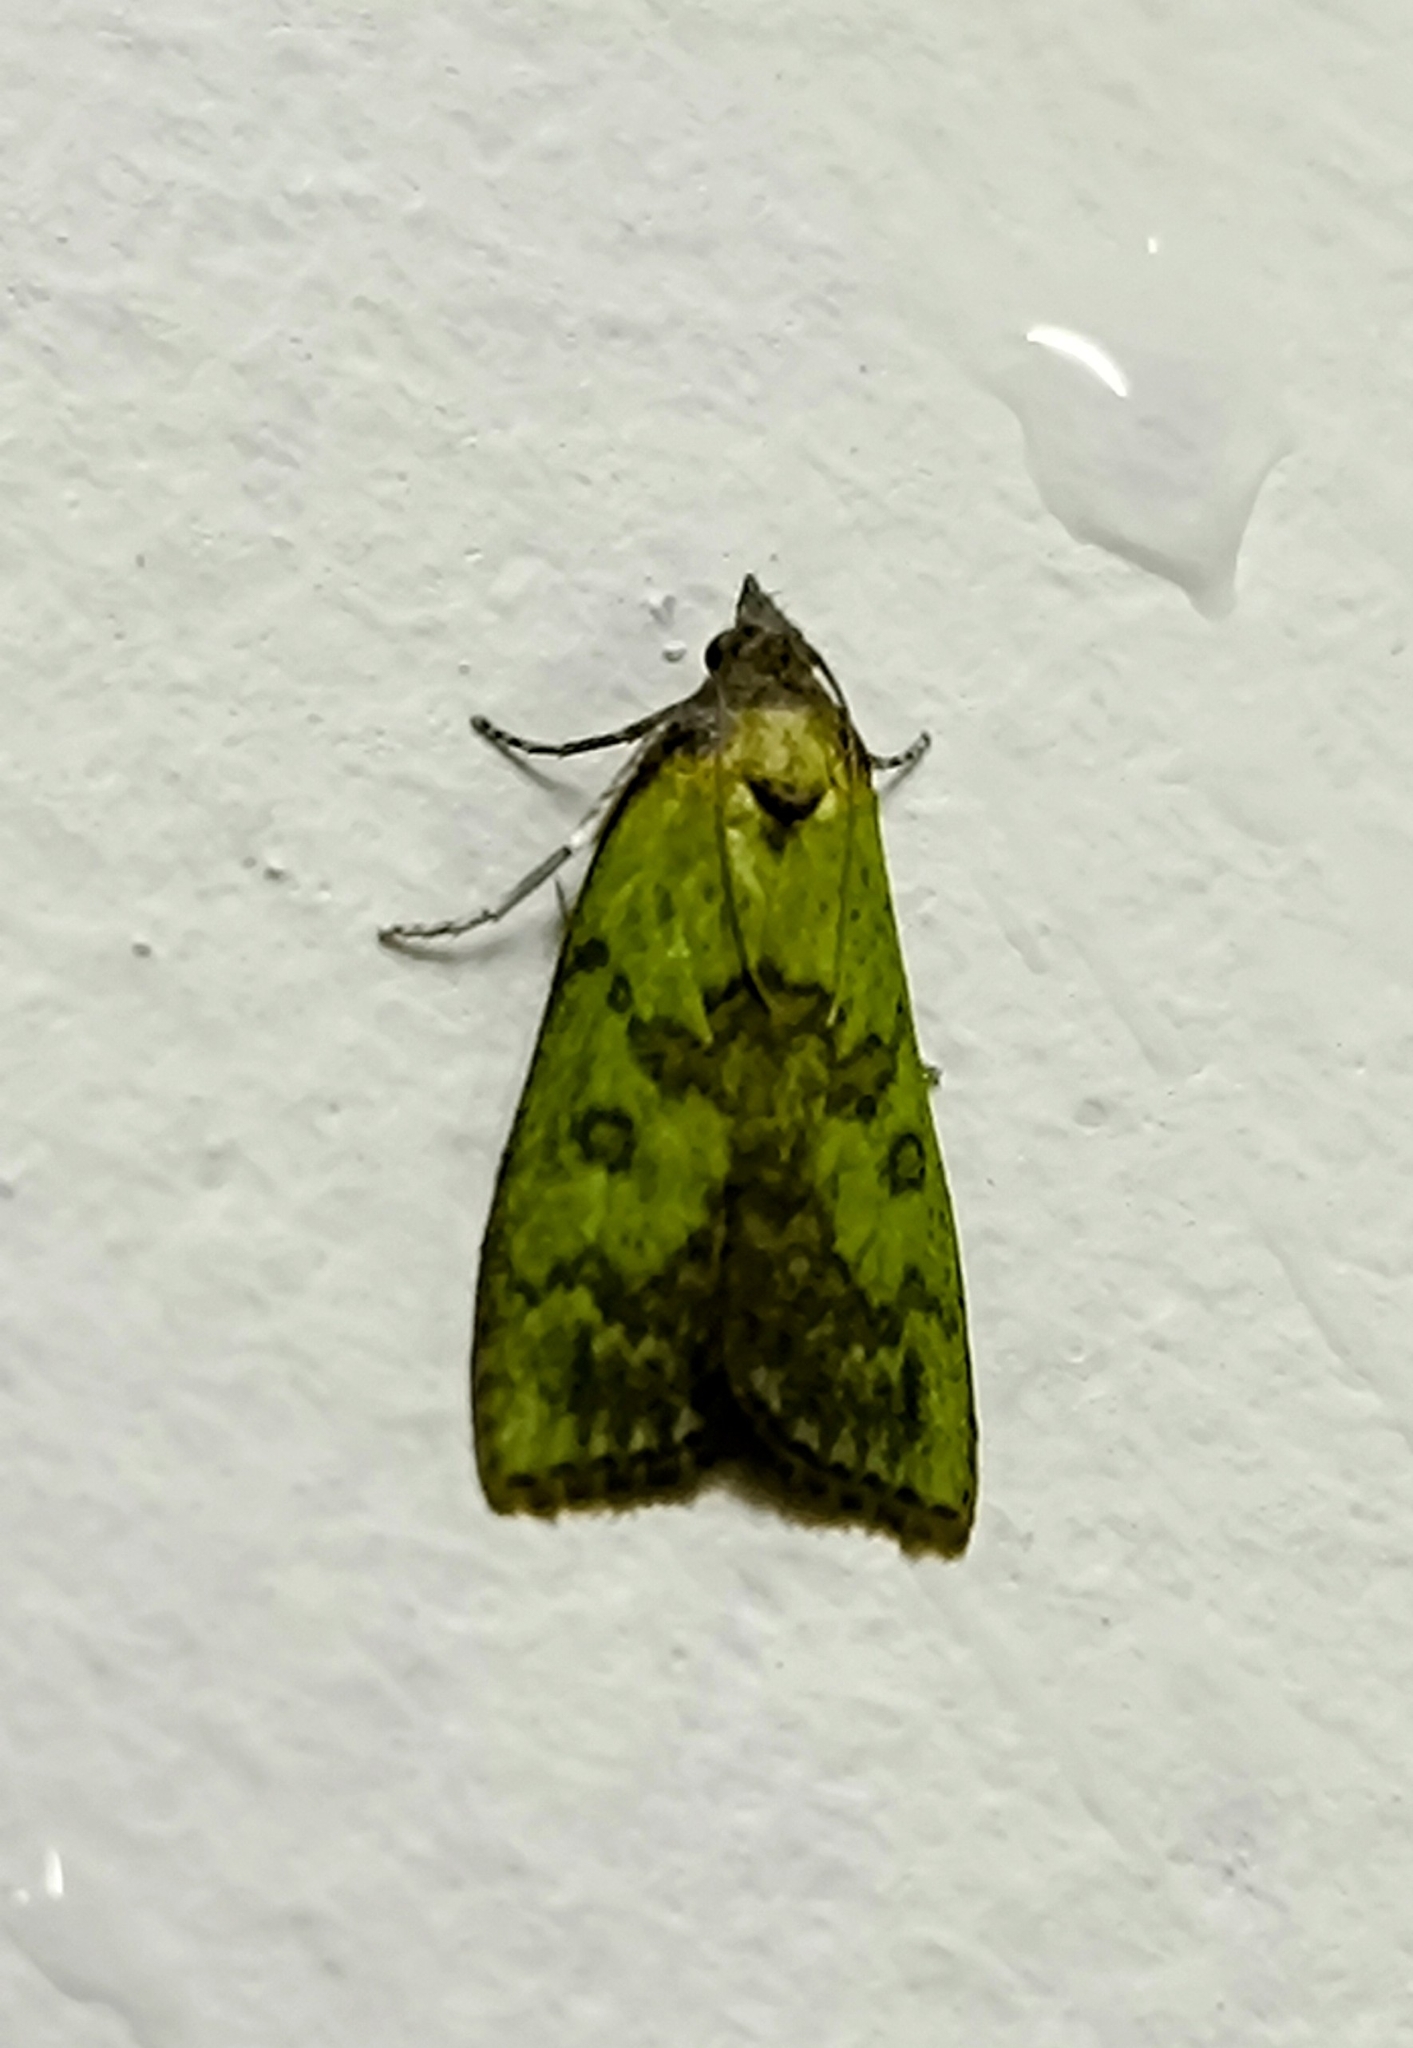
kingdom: Animalia
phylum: Arthropoda
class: Insecta
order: Lepidoptera
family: Pyralidae
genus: Doloessa
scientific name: Doloessa viridis
